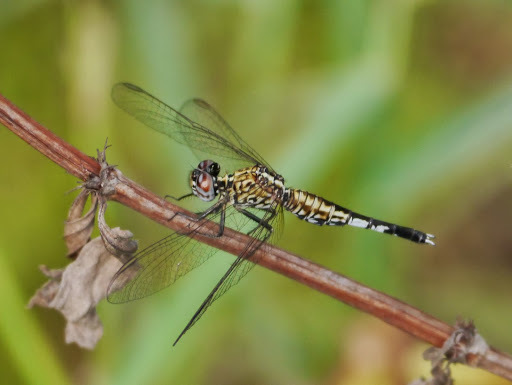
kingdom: Animalia
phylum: Arthropoda
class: Insecta
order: Odonata
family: Libellulidae
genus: Acisoma
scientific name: Acisoma inflatum
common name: Stout pintail
